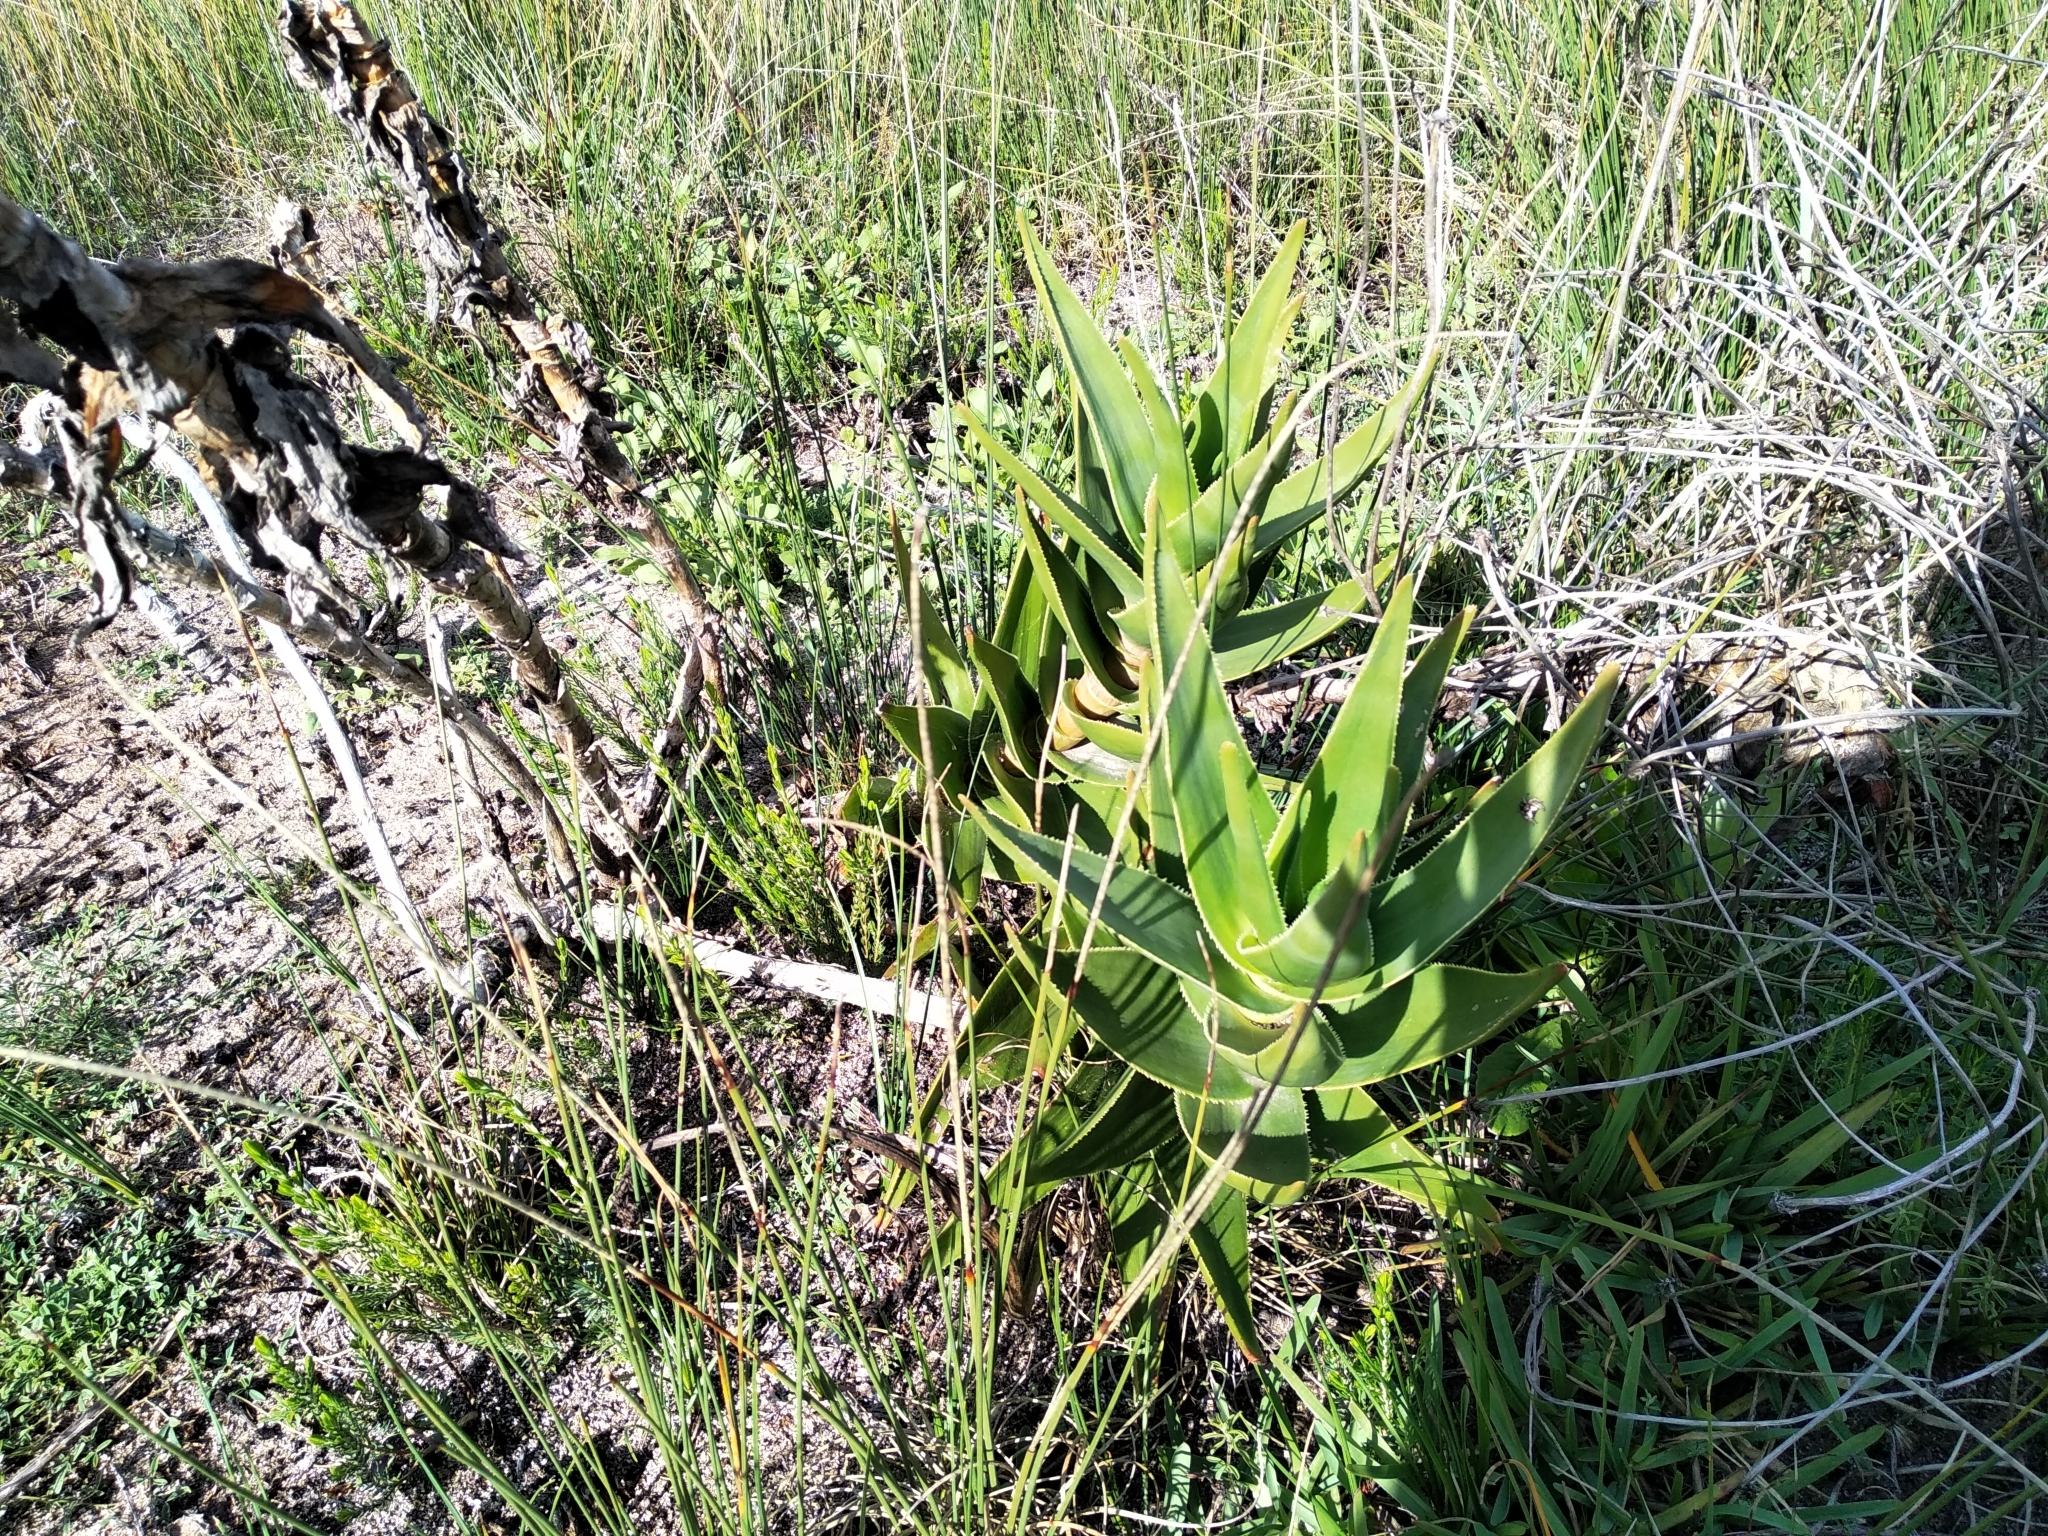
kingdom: Plantae
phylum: Tracheophyta
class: Liliopsida
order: Asparagales
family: Asphodelaceae
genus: Aloiampelos
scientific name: Aloiampelos commixta
